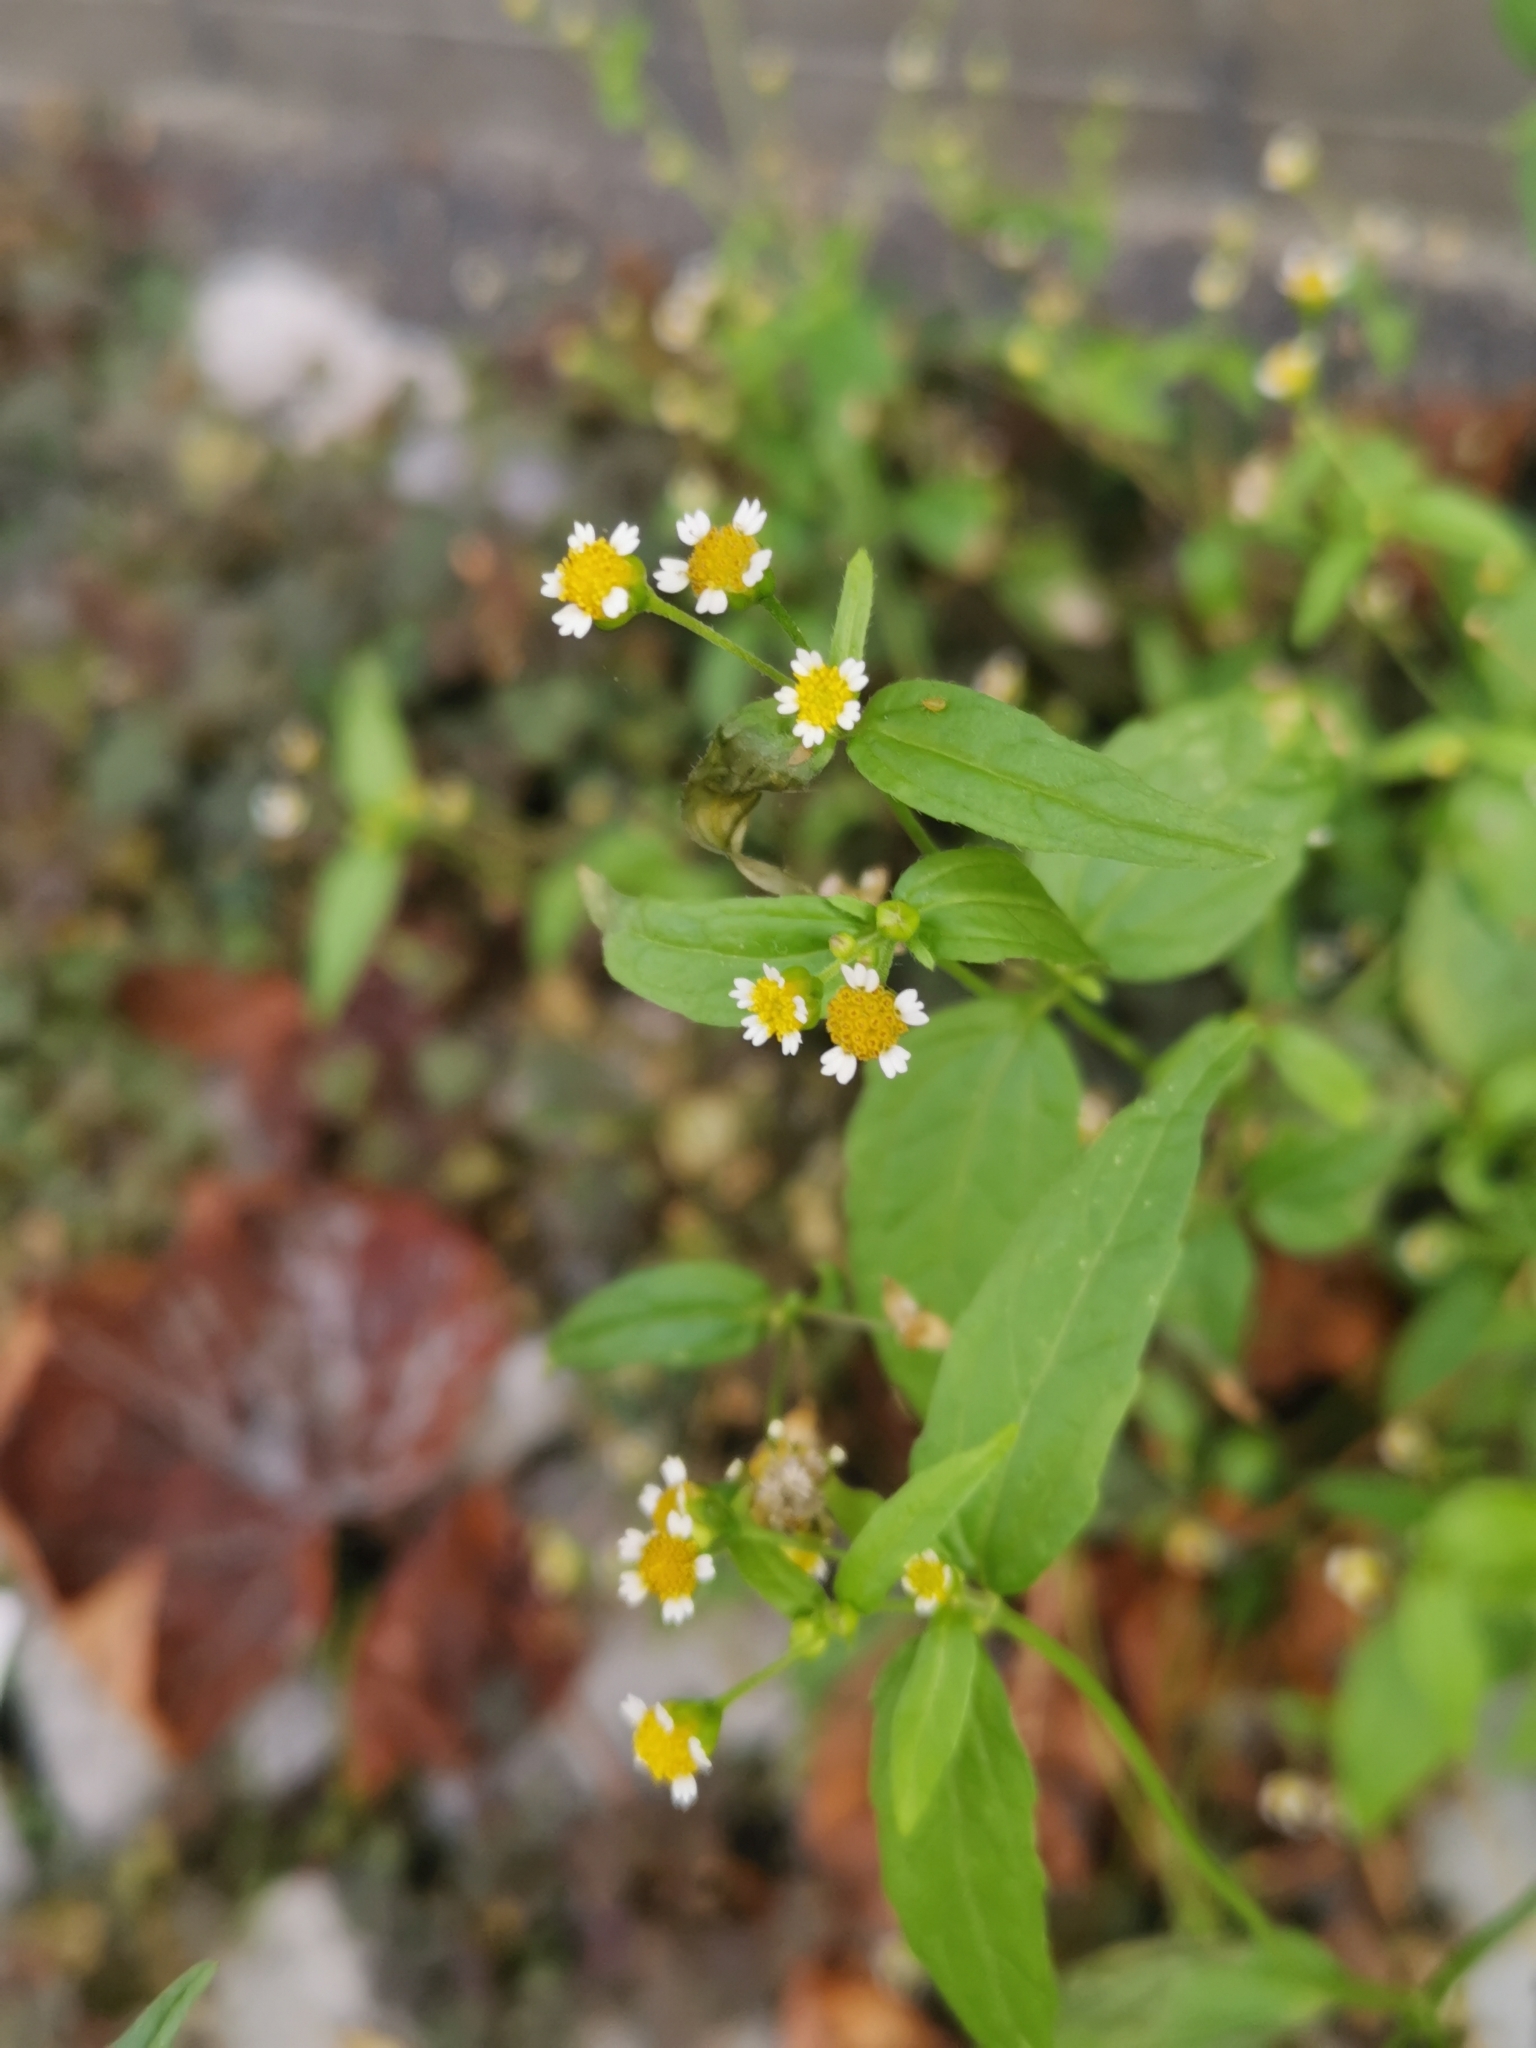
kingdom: Plantae
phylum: Tracheophyta
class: Magnoliopsida
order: Asterales
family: Asteraceae
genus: Galinsoga
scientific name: Galinsoga parviflora
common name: Gallant soldier
